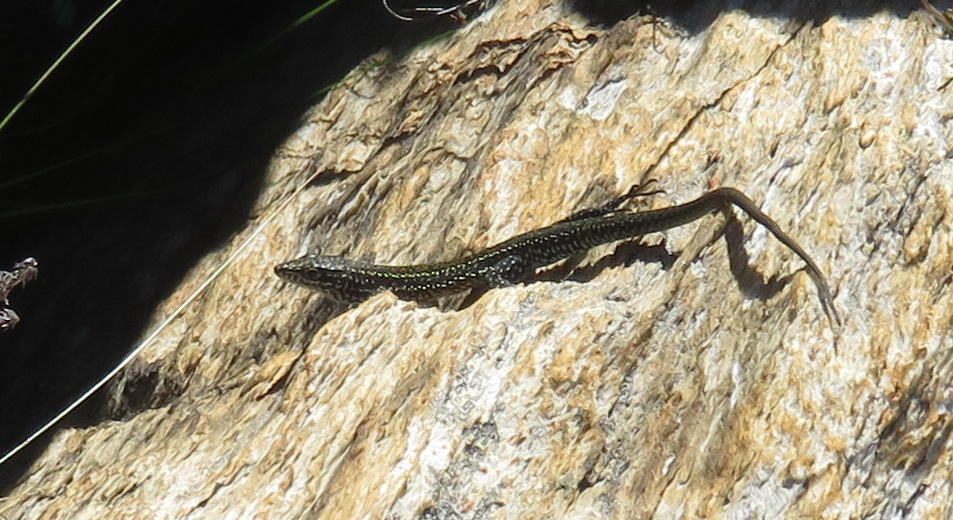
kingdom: Animalia
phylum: Chordata
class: Squamata
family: Lacertidae
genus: Tropidosaura
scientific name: Tropidosaura gularis
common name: Cape mountain lizard
